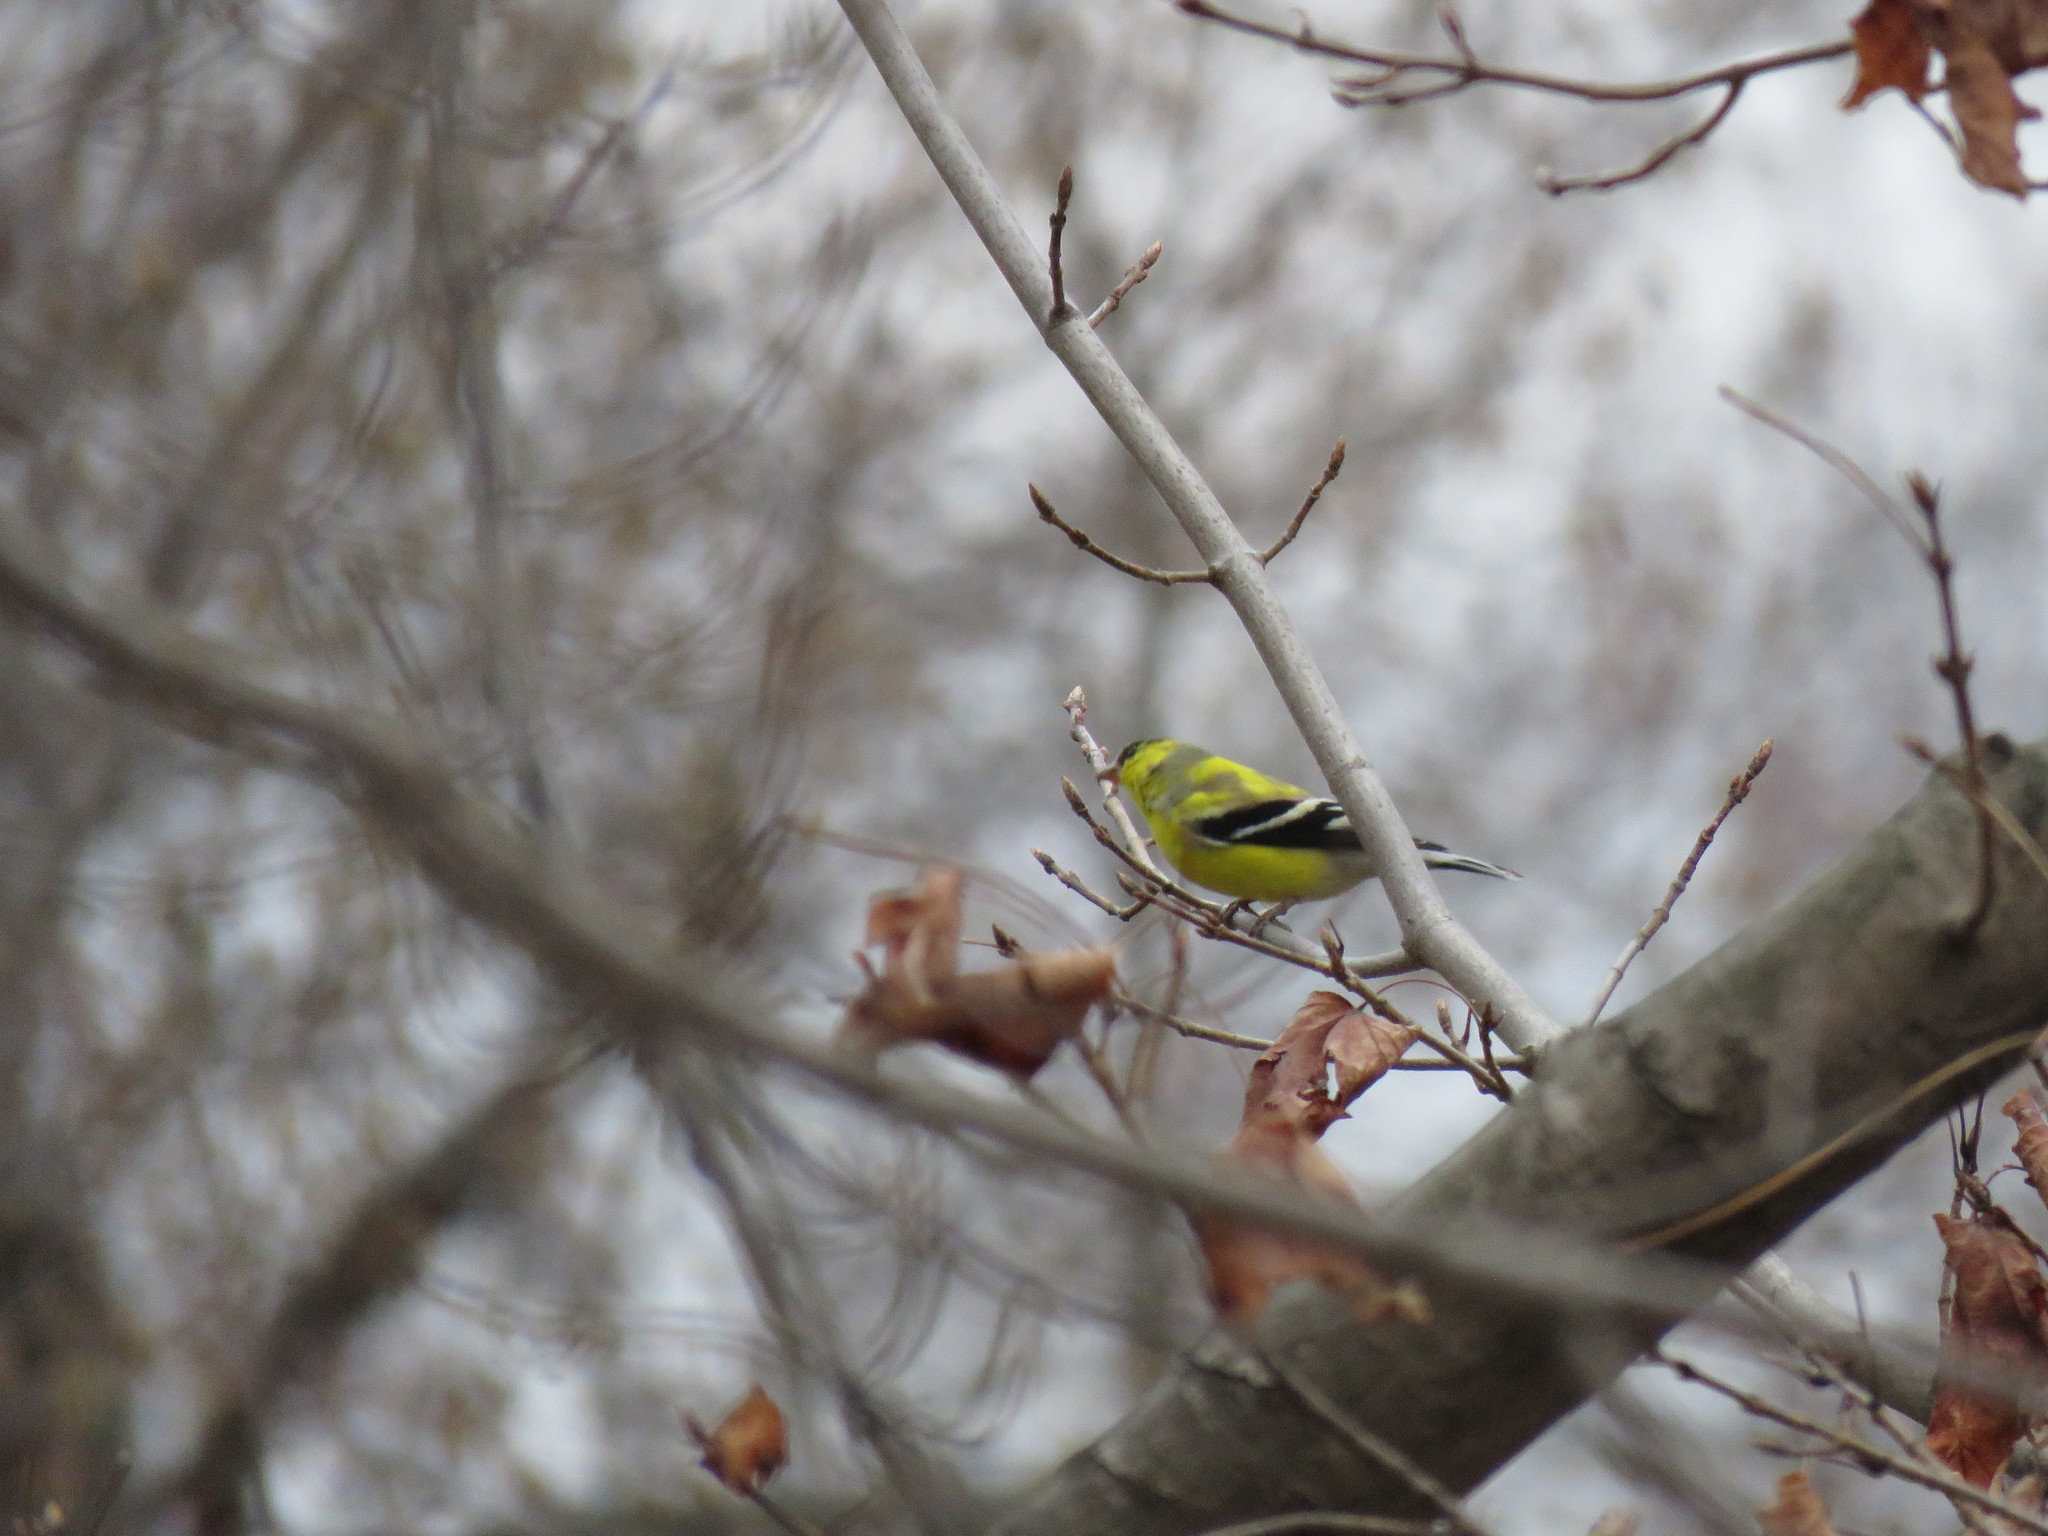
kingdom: Animalia
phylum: Chordata
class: Aves
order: Passeriformes
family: Fringillidae
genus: Spinus
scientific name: Spinus tristis
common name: American goldfinch
